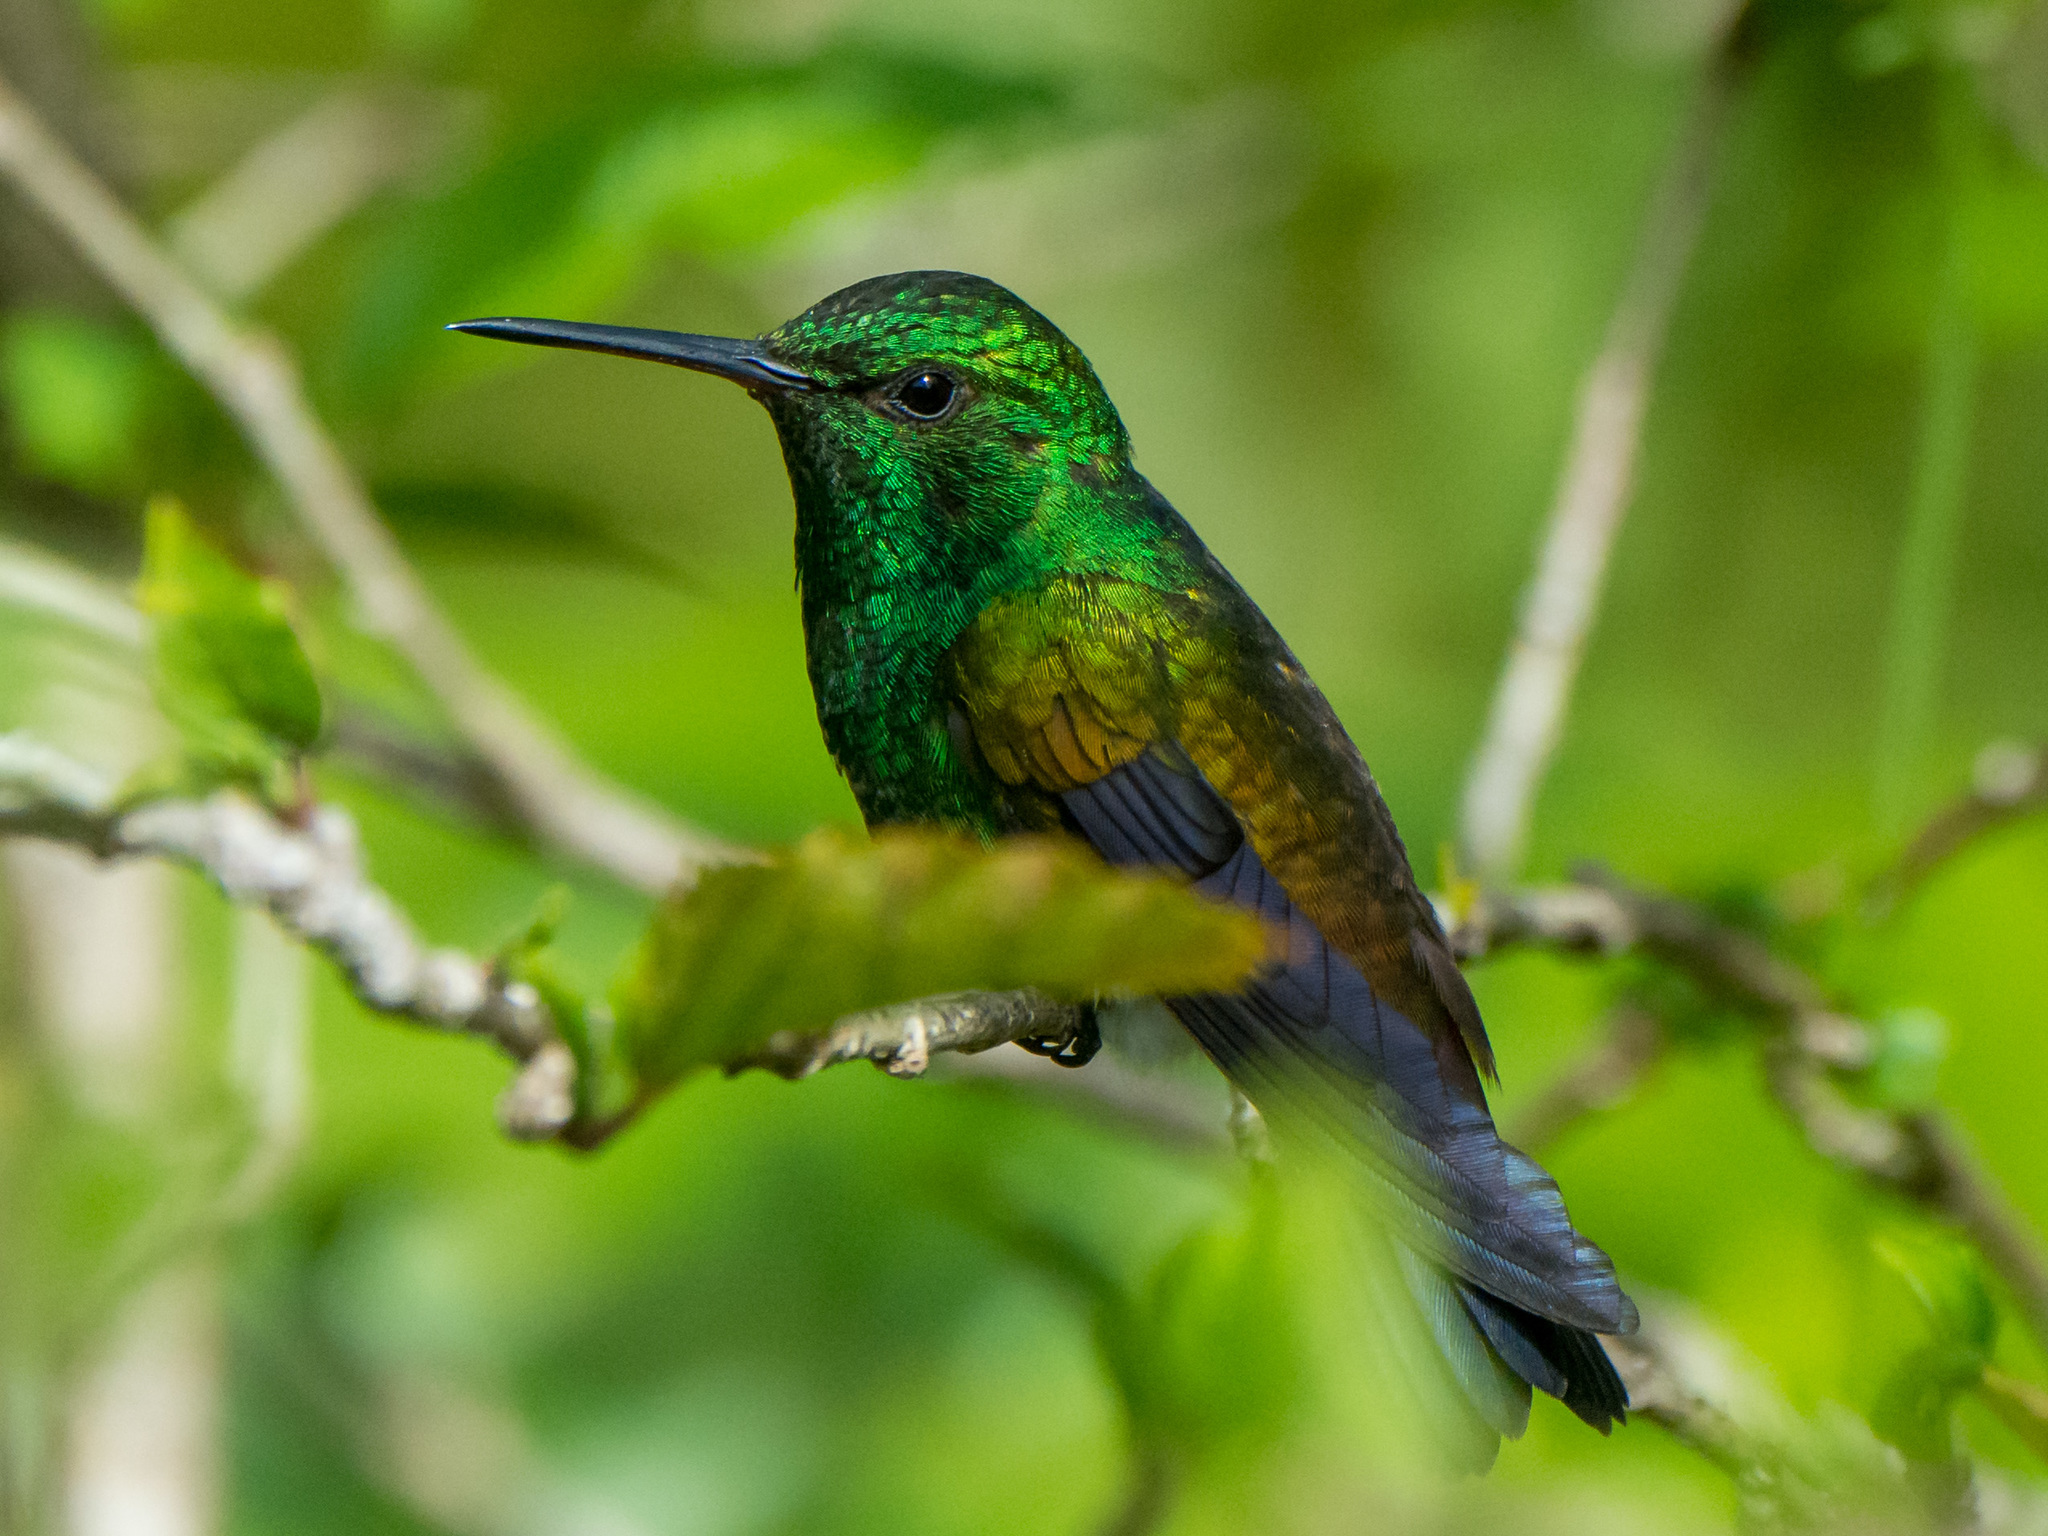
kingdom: Animalia
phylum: Chordata
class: Aves
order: Apodiformes
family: Trochilidae
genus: Saucerottia
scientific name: Saucerottia tobaci
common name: Copper-rumped hummingbird
